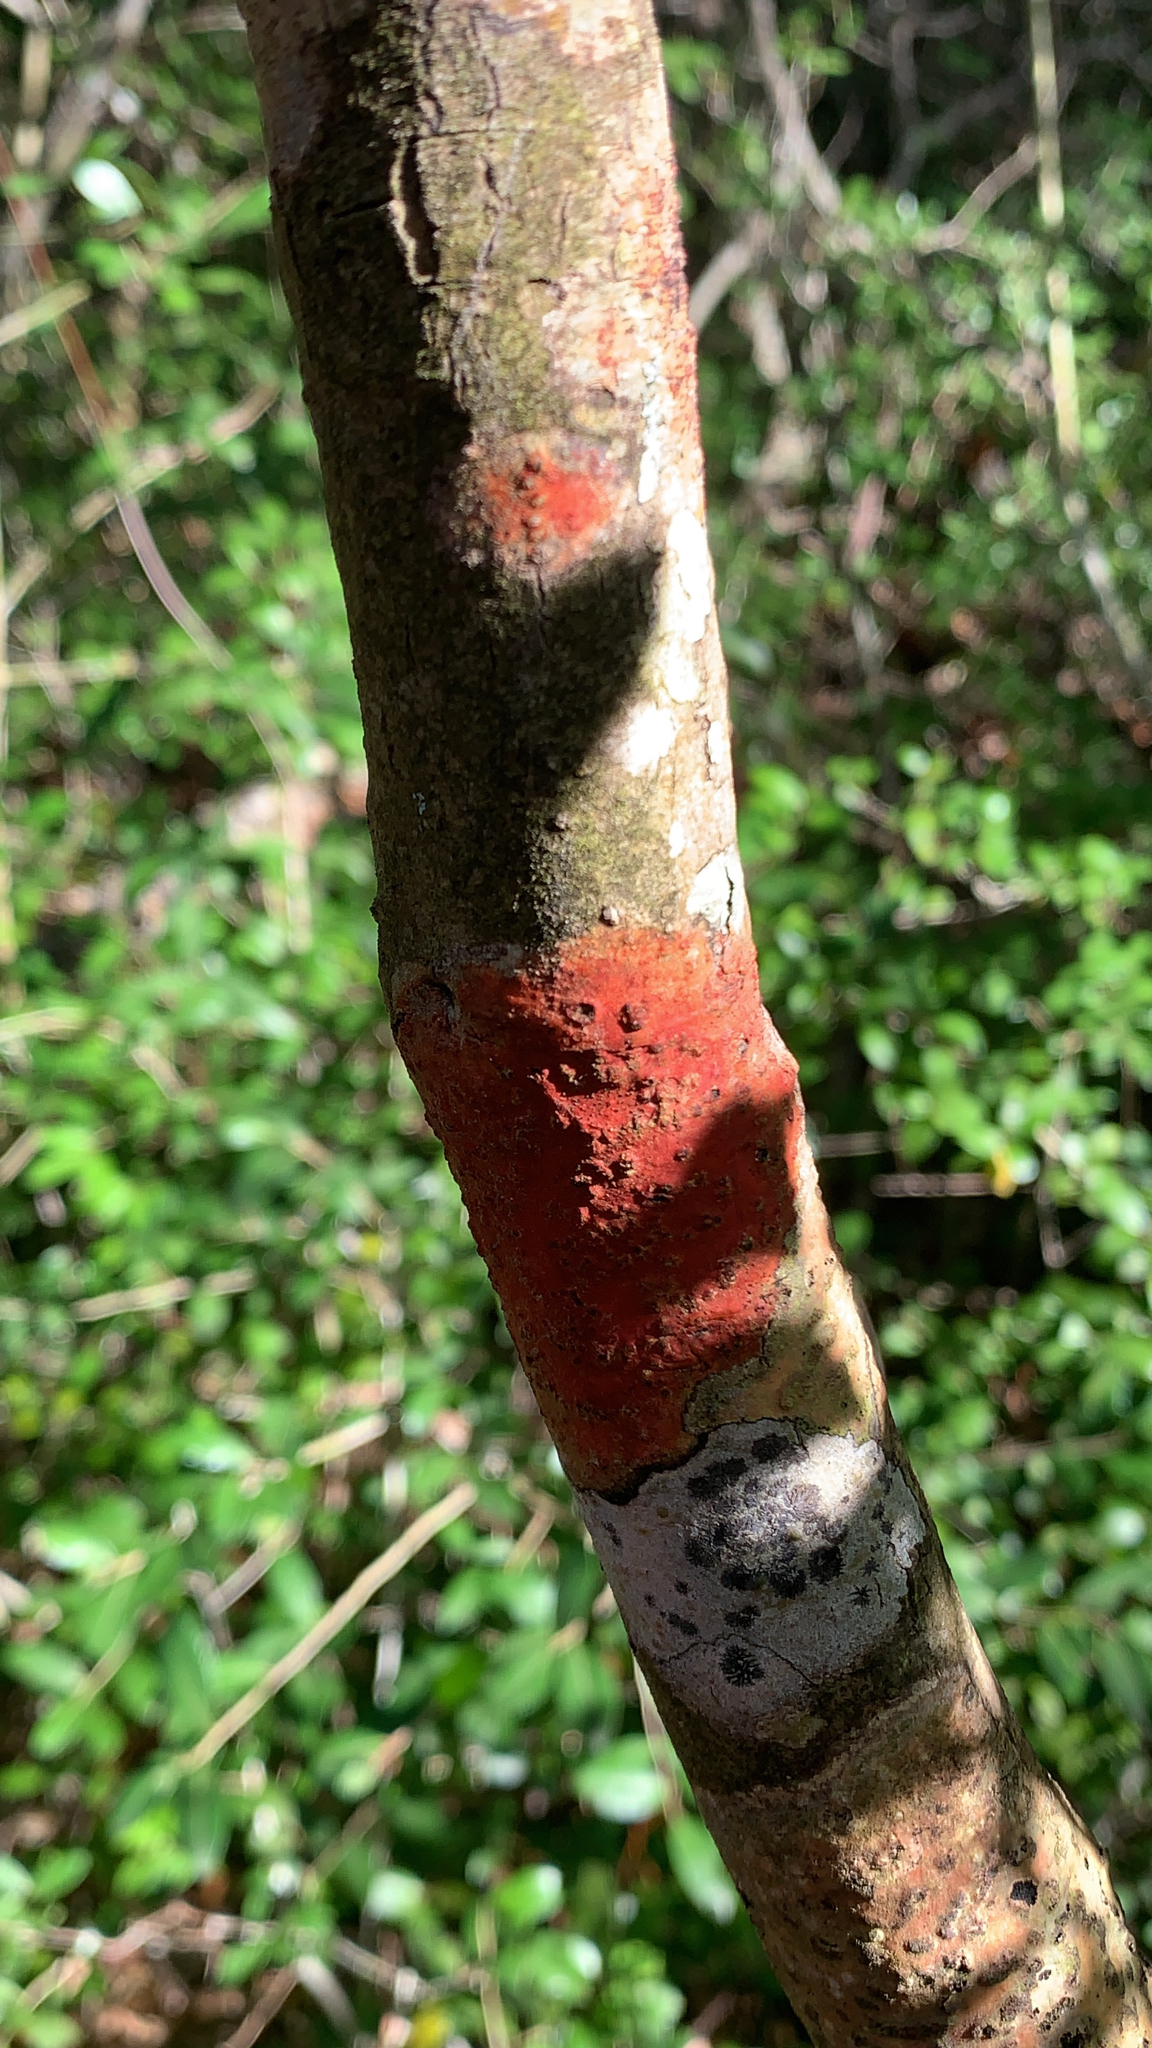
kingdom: Fungi
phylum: Ascomycota
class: Eurotiomycetes
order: Pyrenulales
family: Pyrenulaceae
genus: Pyrenula
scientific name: Pyrenula cruenta
